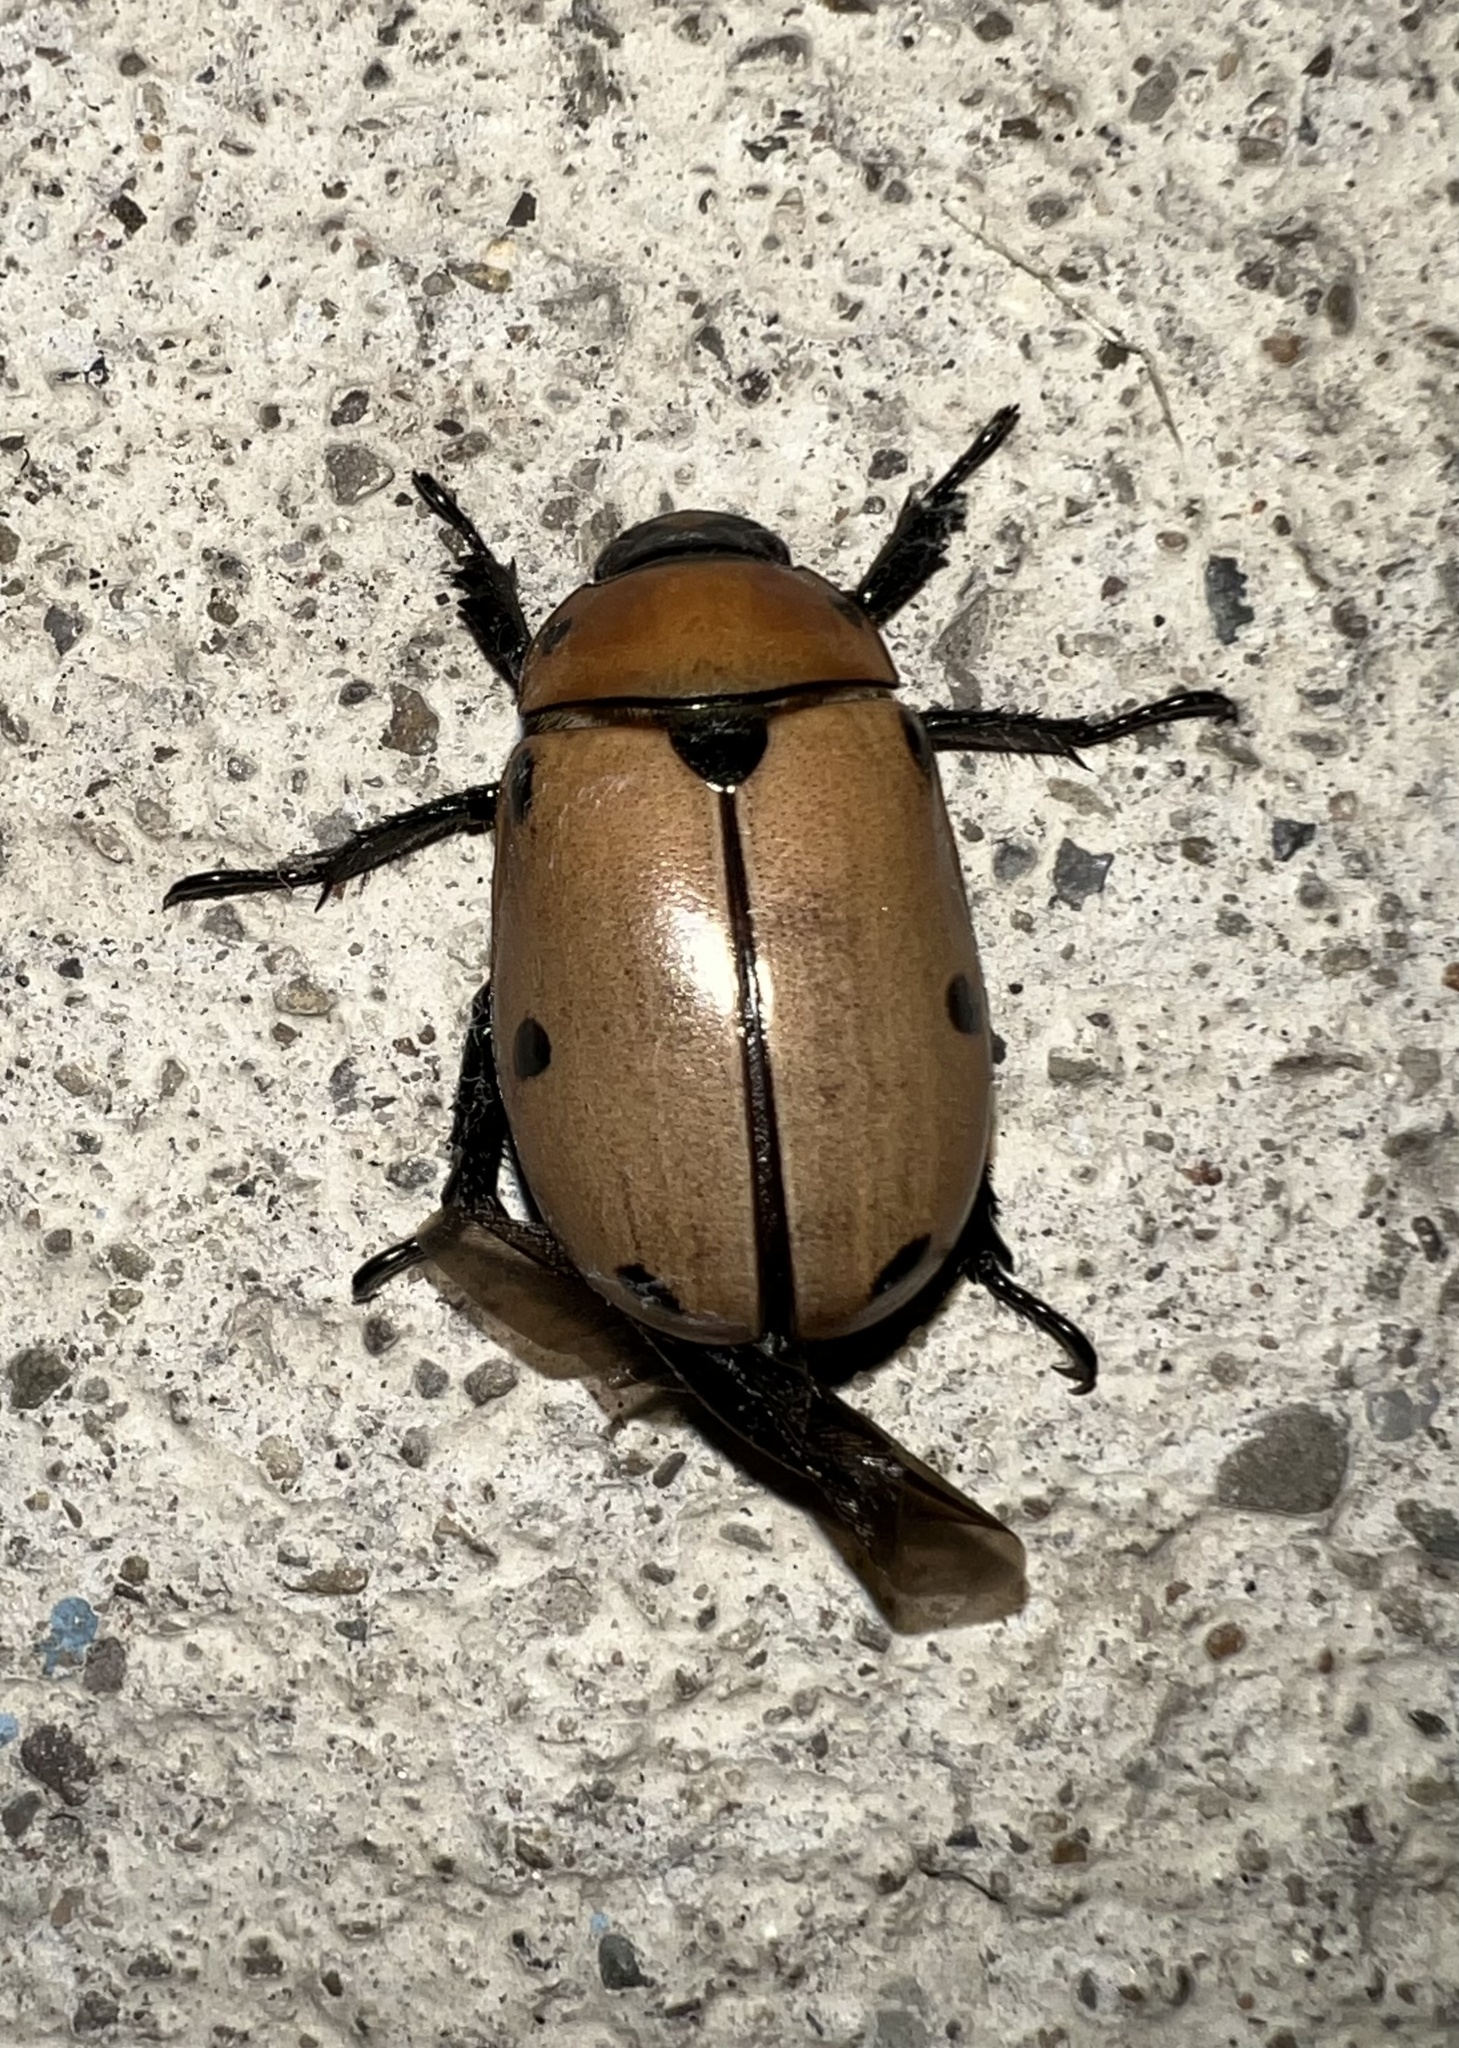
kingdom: Animalia
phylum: Arthropoda
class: Insecta
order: Coleoptera
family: Scarabaeidae
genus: Pelidnota
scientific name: Pelidnota punctata
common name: Grapevine beetle
